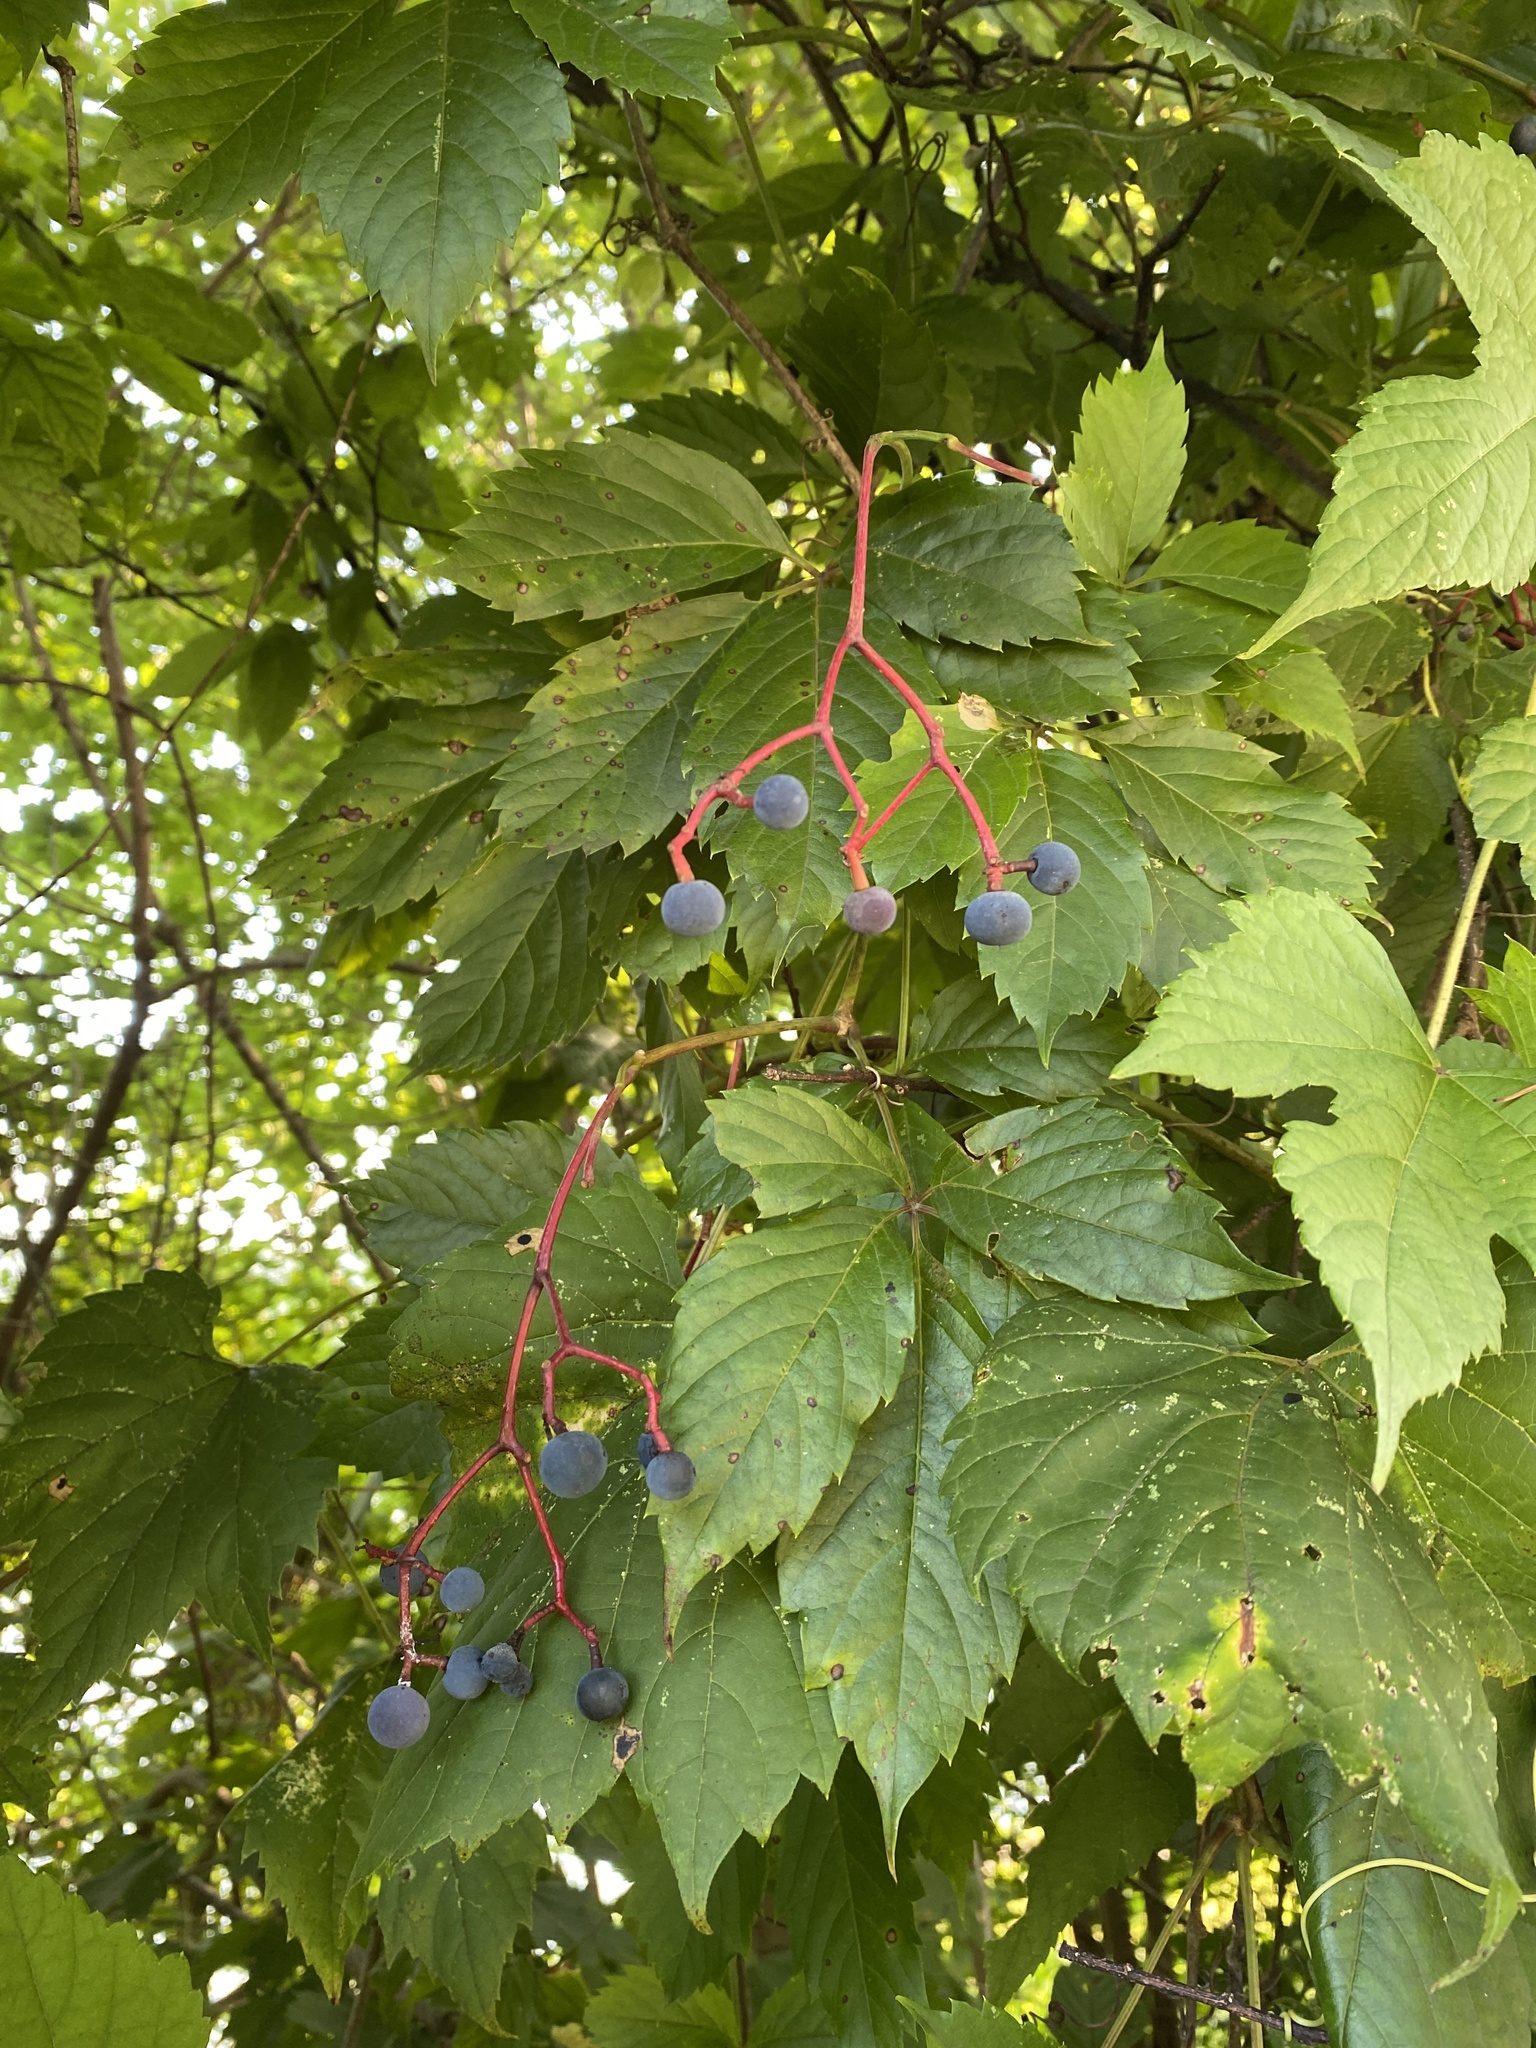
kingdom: Plantae
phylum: Tracheophyta
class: Magnoliopsida
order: Vitales
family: Vitaceae
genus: Parthenocissus
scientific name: Parthenocissus inserta
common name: False virginia-creeper
